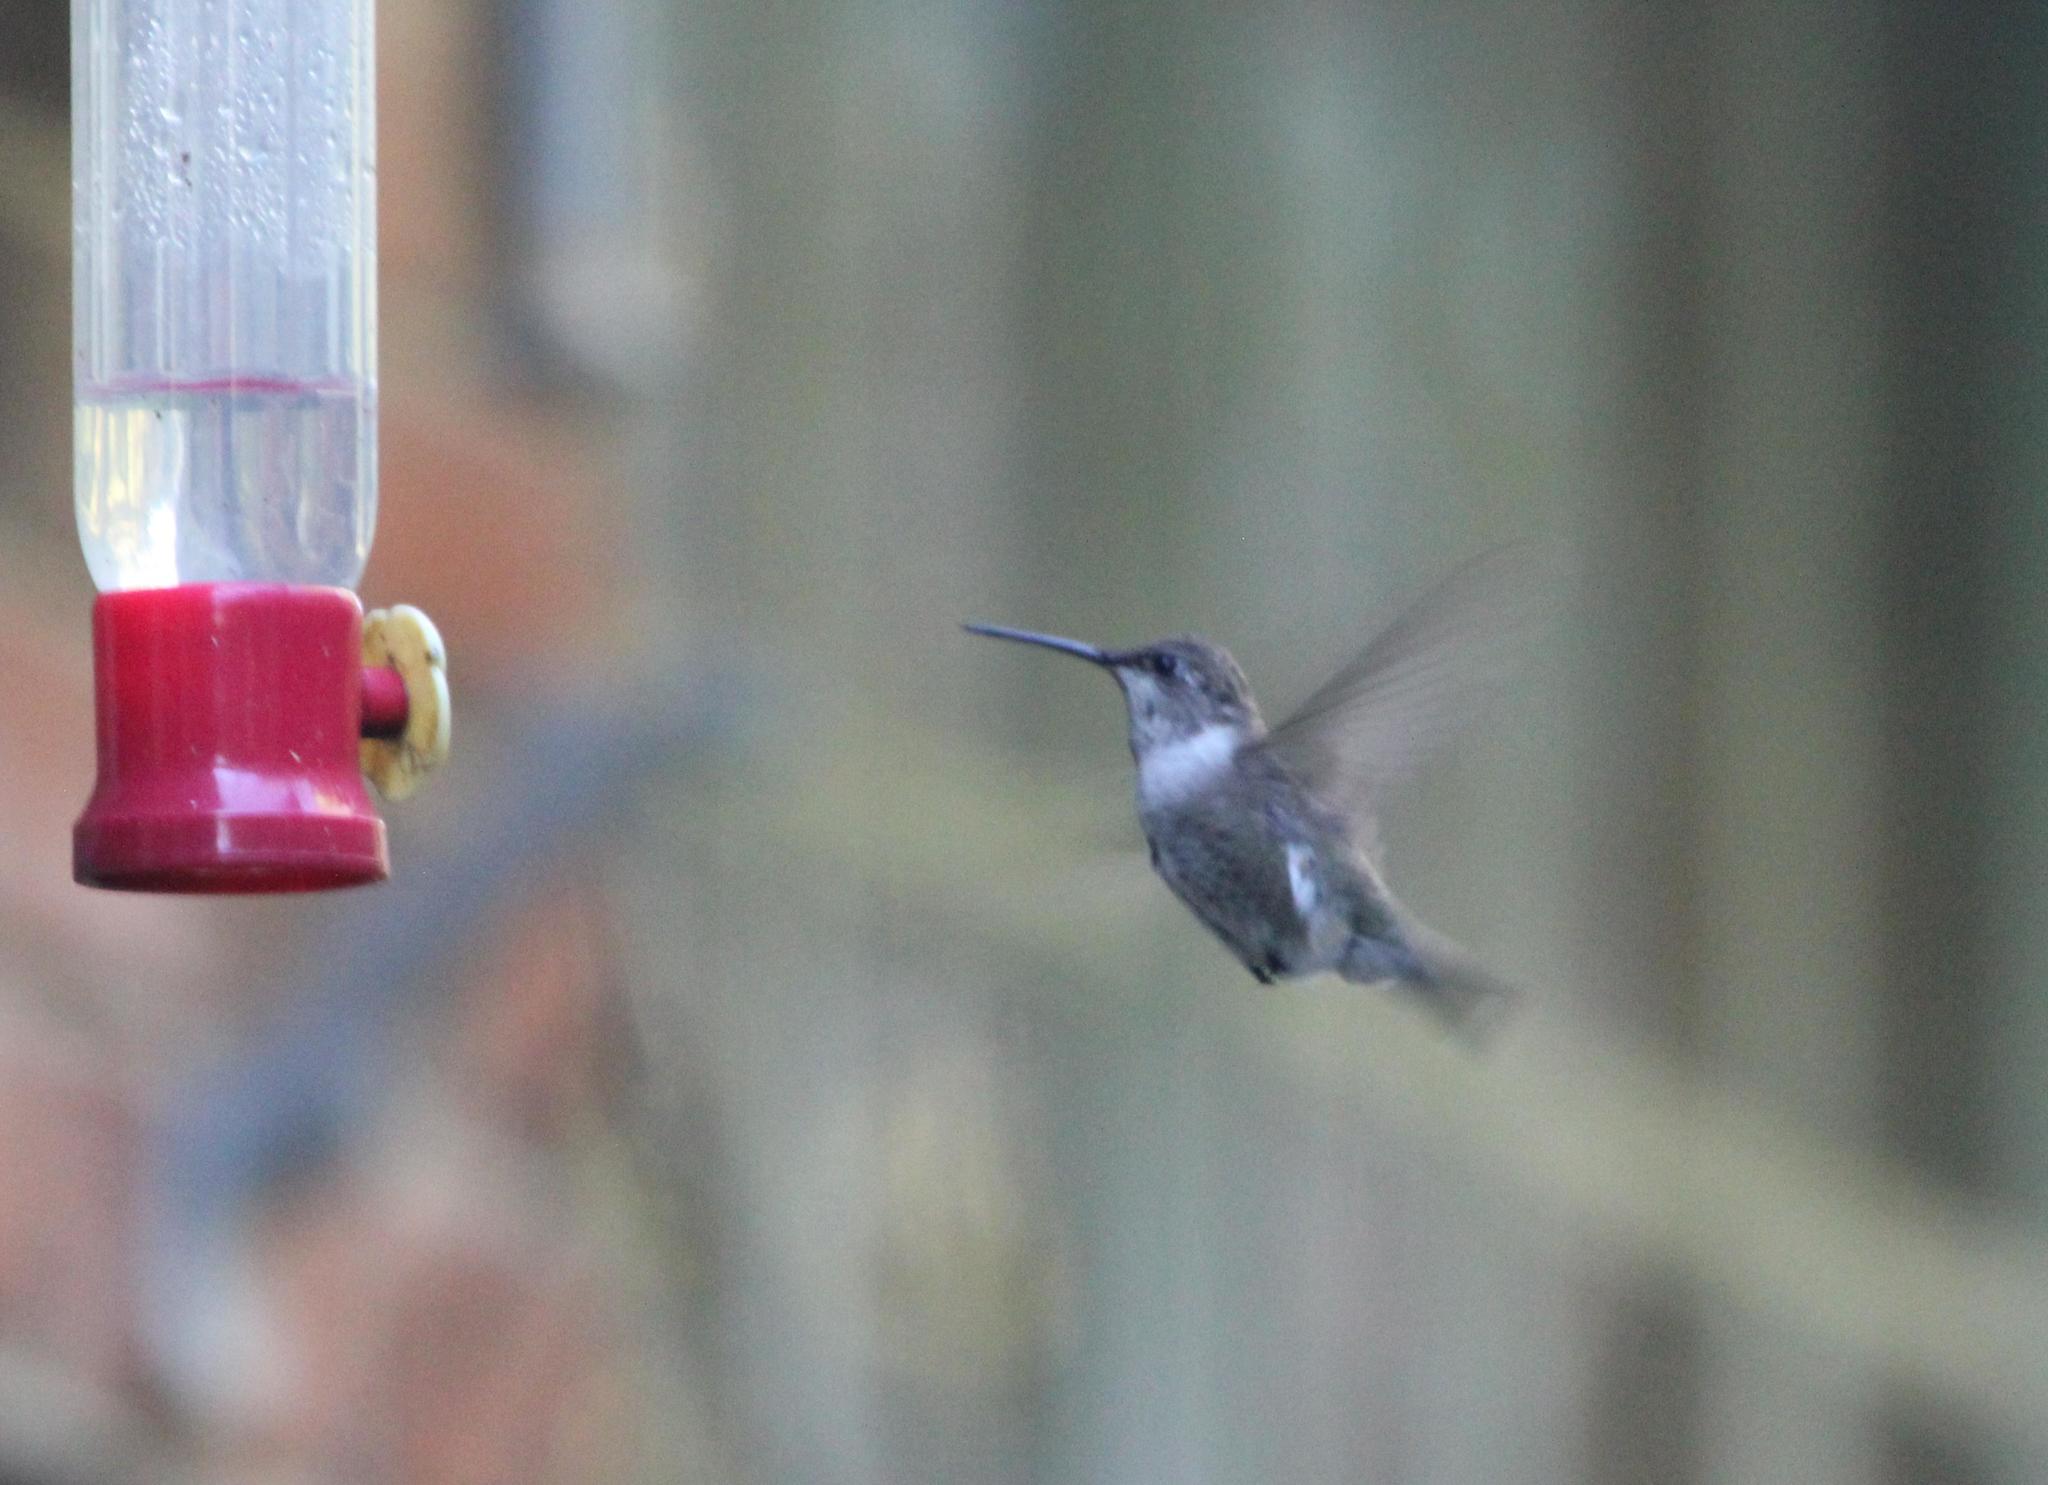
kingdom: Animalia
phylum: Chordata
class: Aves
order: Apodiformes
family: Trochilidae
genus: Archilochus
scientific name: Archilochus alexandri
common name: Black-chinned hummingbird
